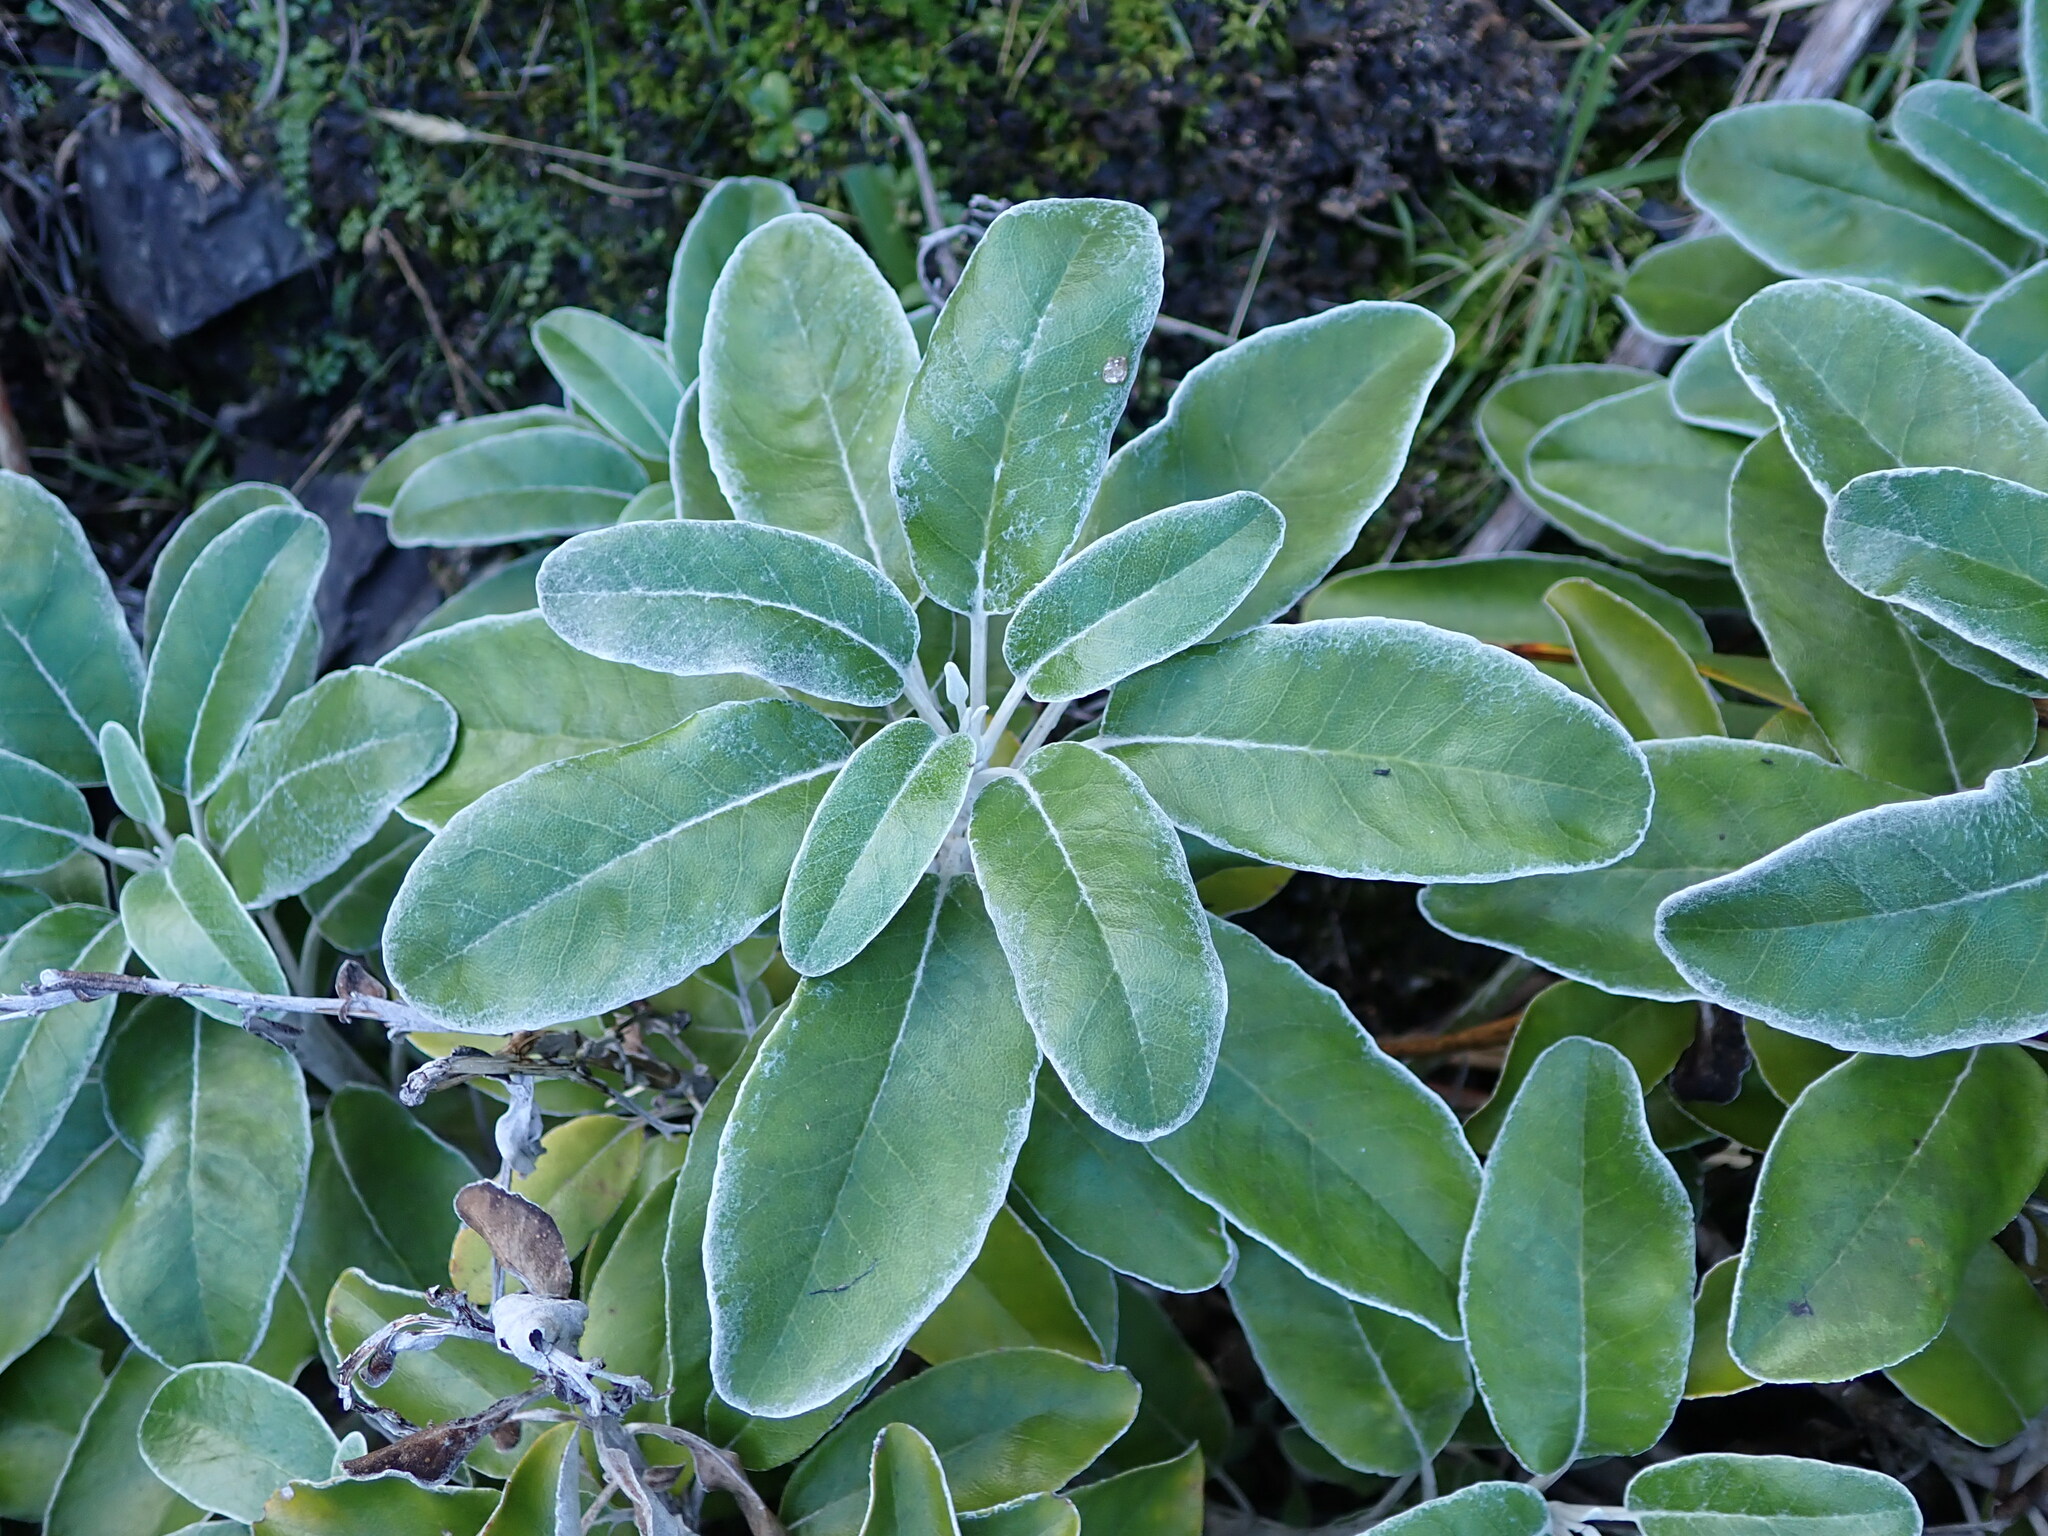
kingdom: Plantae
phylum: Tracheophyta
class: Magnoliopsida
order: Asterales
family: Asteraceae
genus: Brachyglottis
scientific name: Brachyglottis greyi
